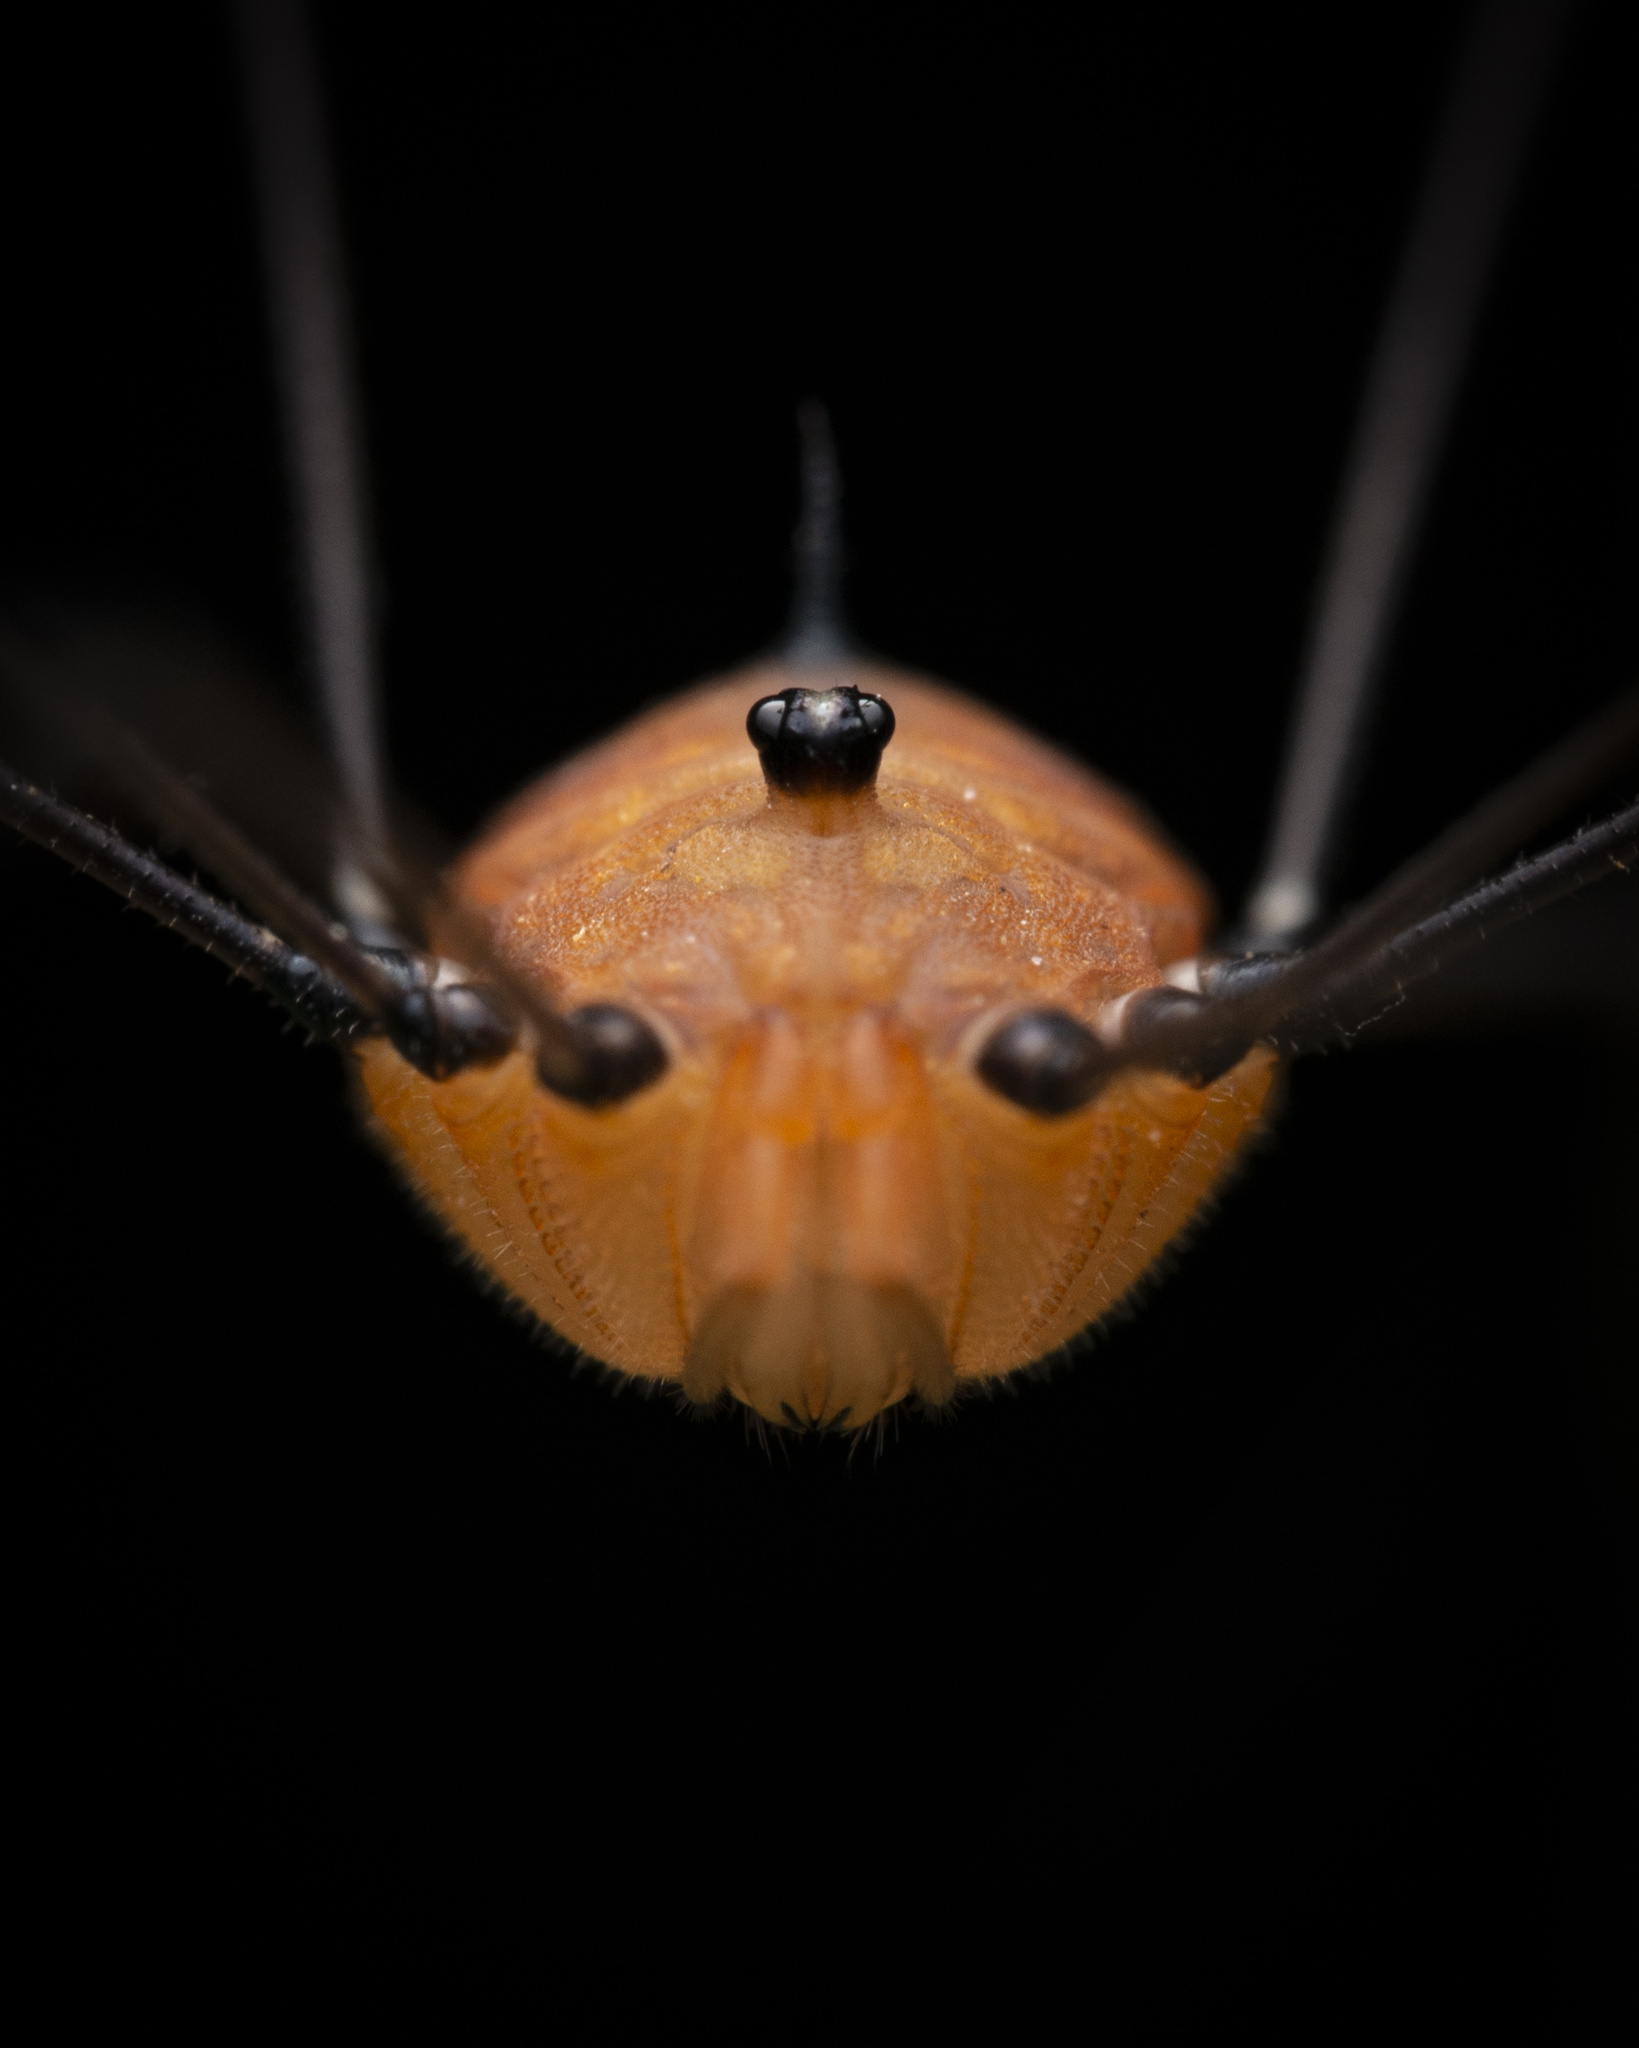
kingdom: Animalia
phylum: Arthropoda
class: Arachnida
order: Opiliones
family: Sclerosomatidae
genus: Pseudogagrella
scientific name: Pseudogagrella splendens
